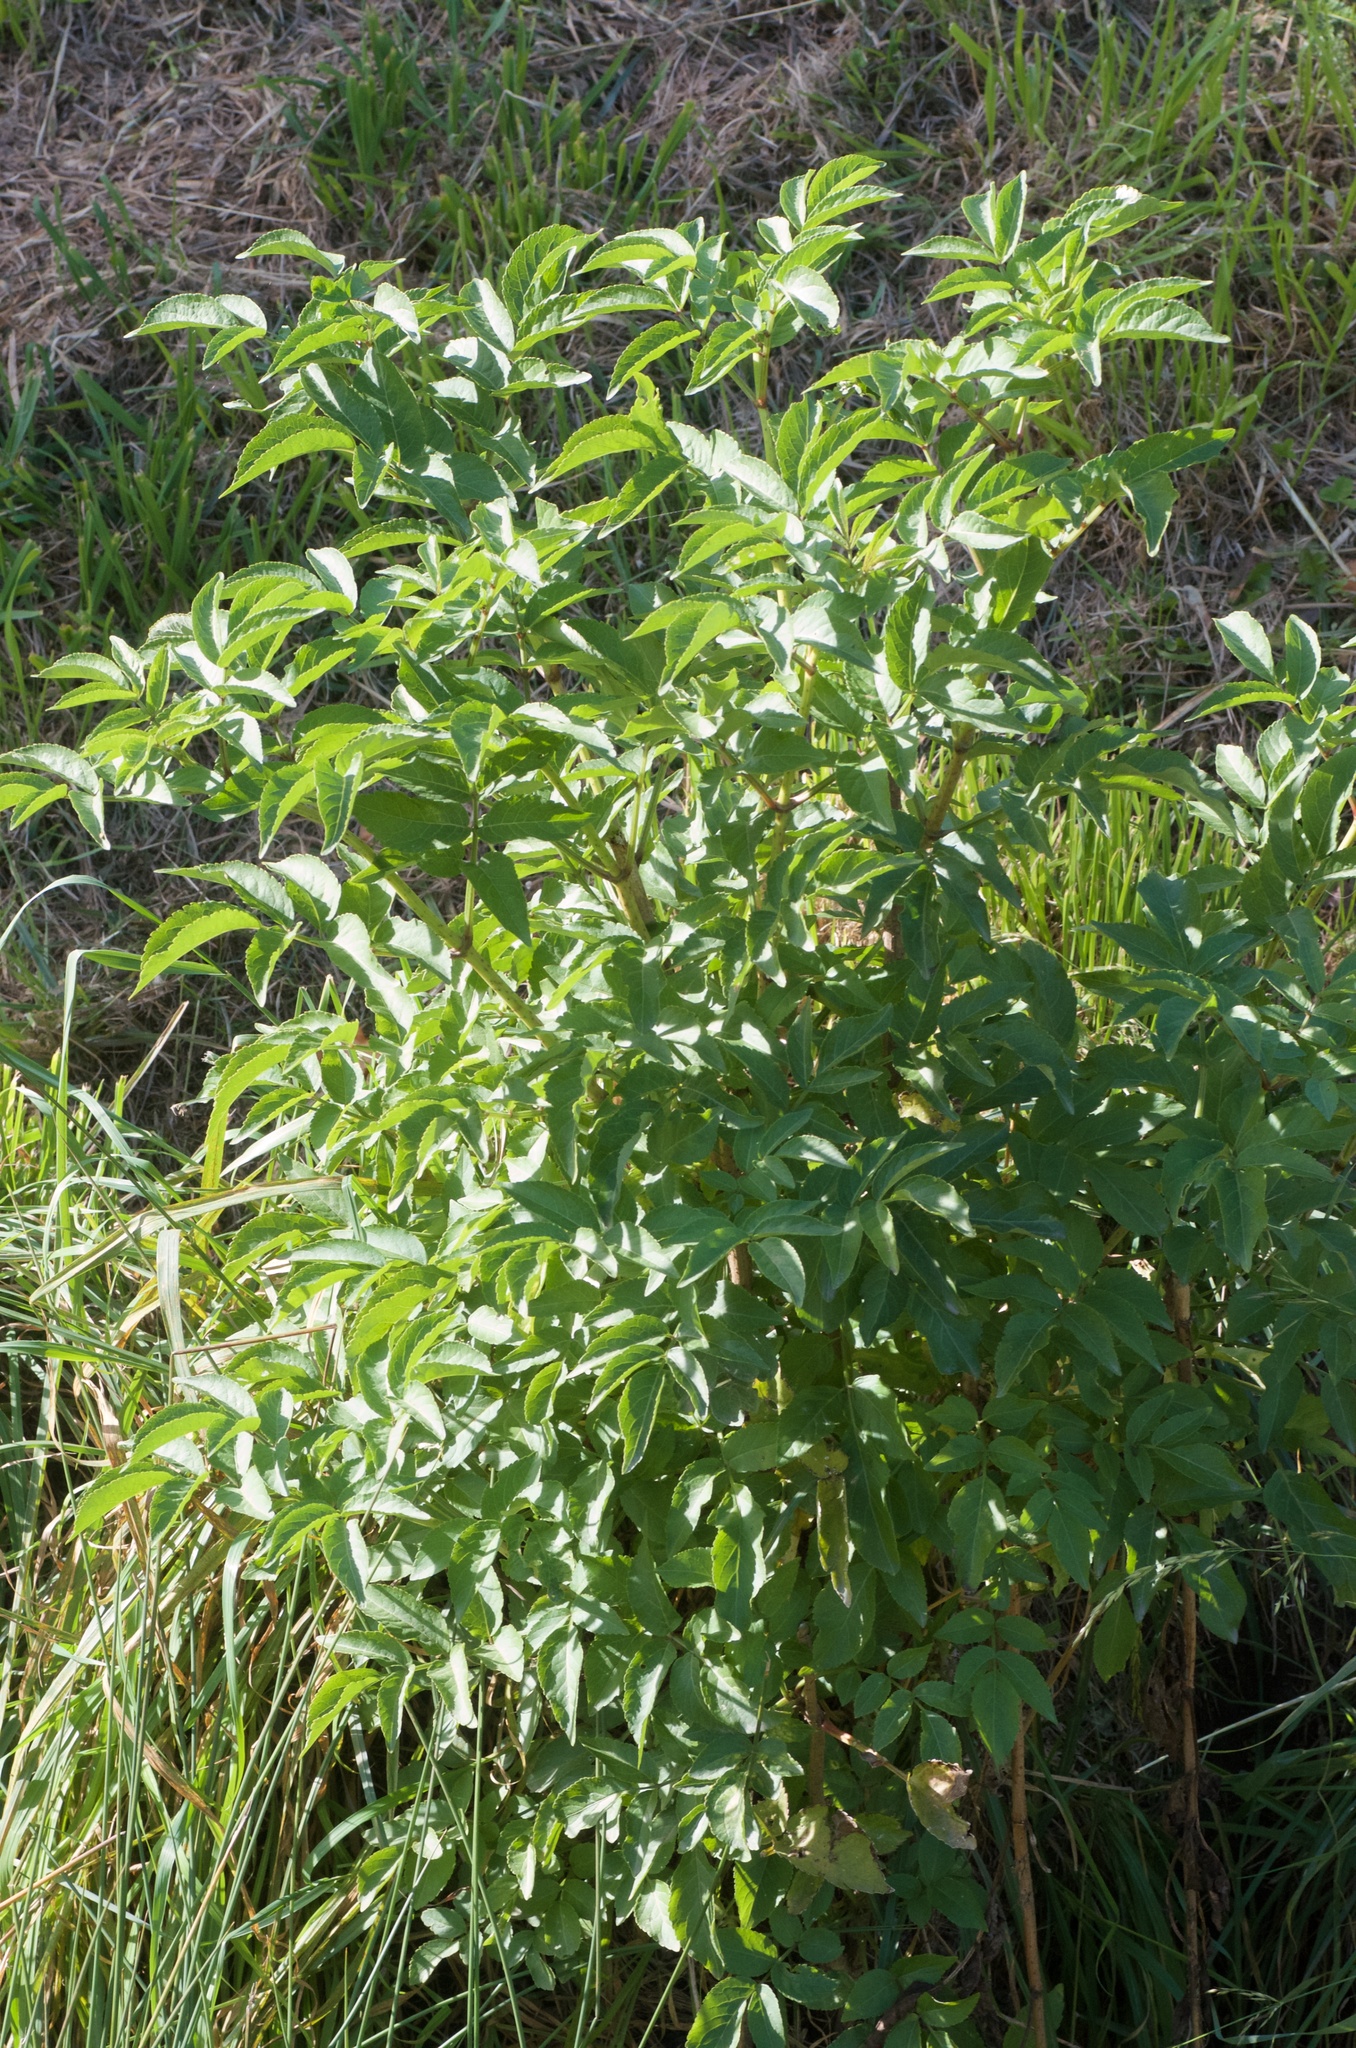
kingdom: Plantae
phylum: Tracheophyta
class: Magnoliopsida
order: Dipsacales
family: Viburnaceae
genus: Sambucus
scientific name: Sambucus nigra
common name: Elder
